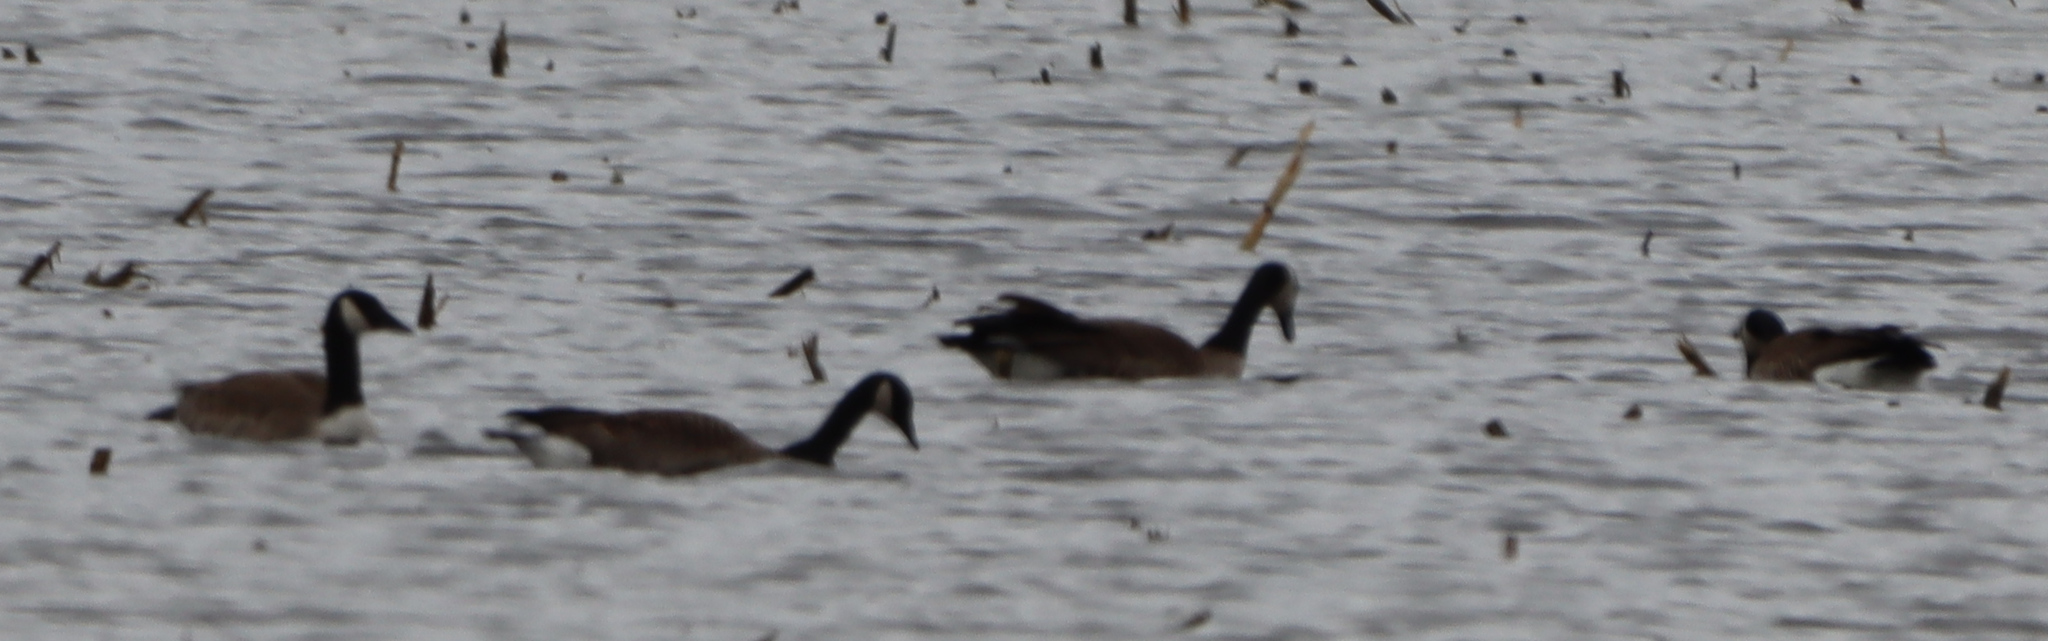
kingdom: Animalia
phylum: Chordata
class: Aves
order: Anseriformes
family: Anatidae
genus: Branta
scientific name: Branta canadensis
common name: Canada goose
